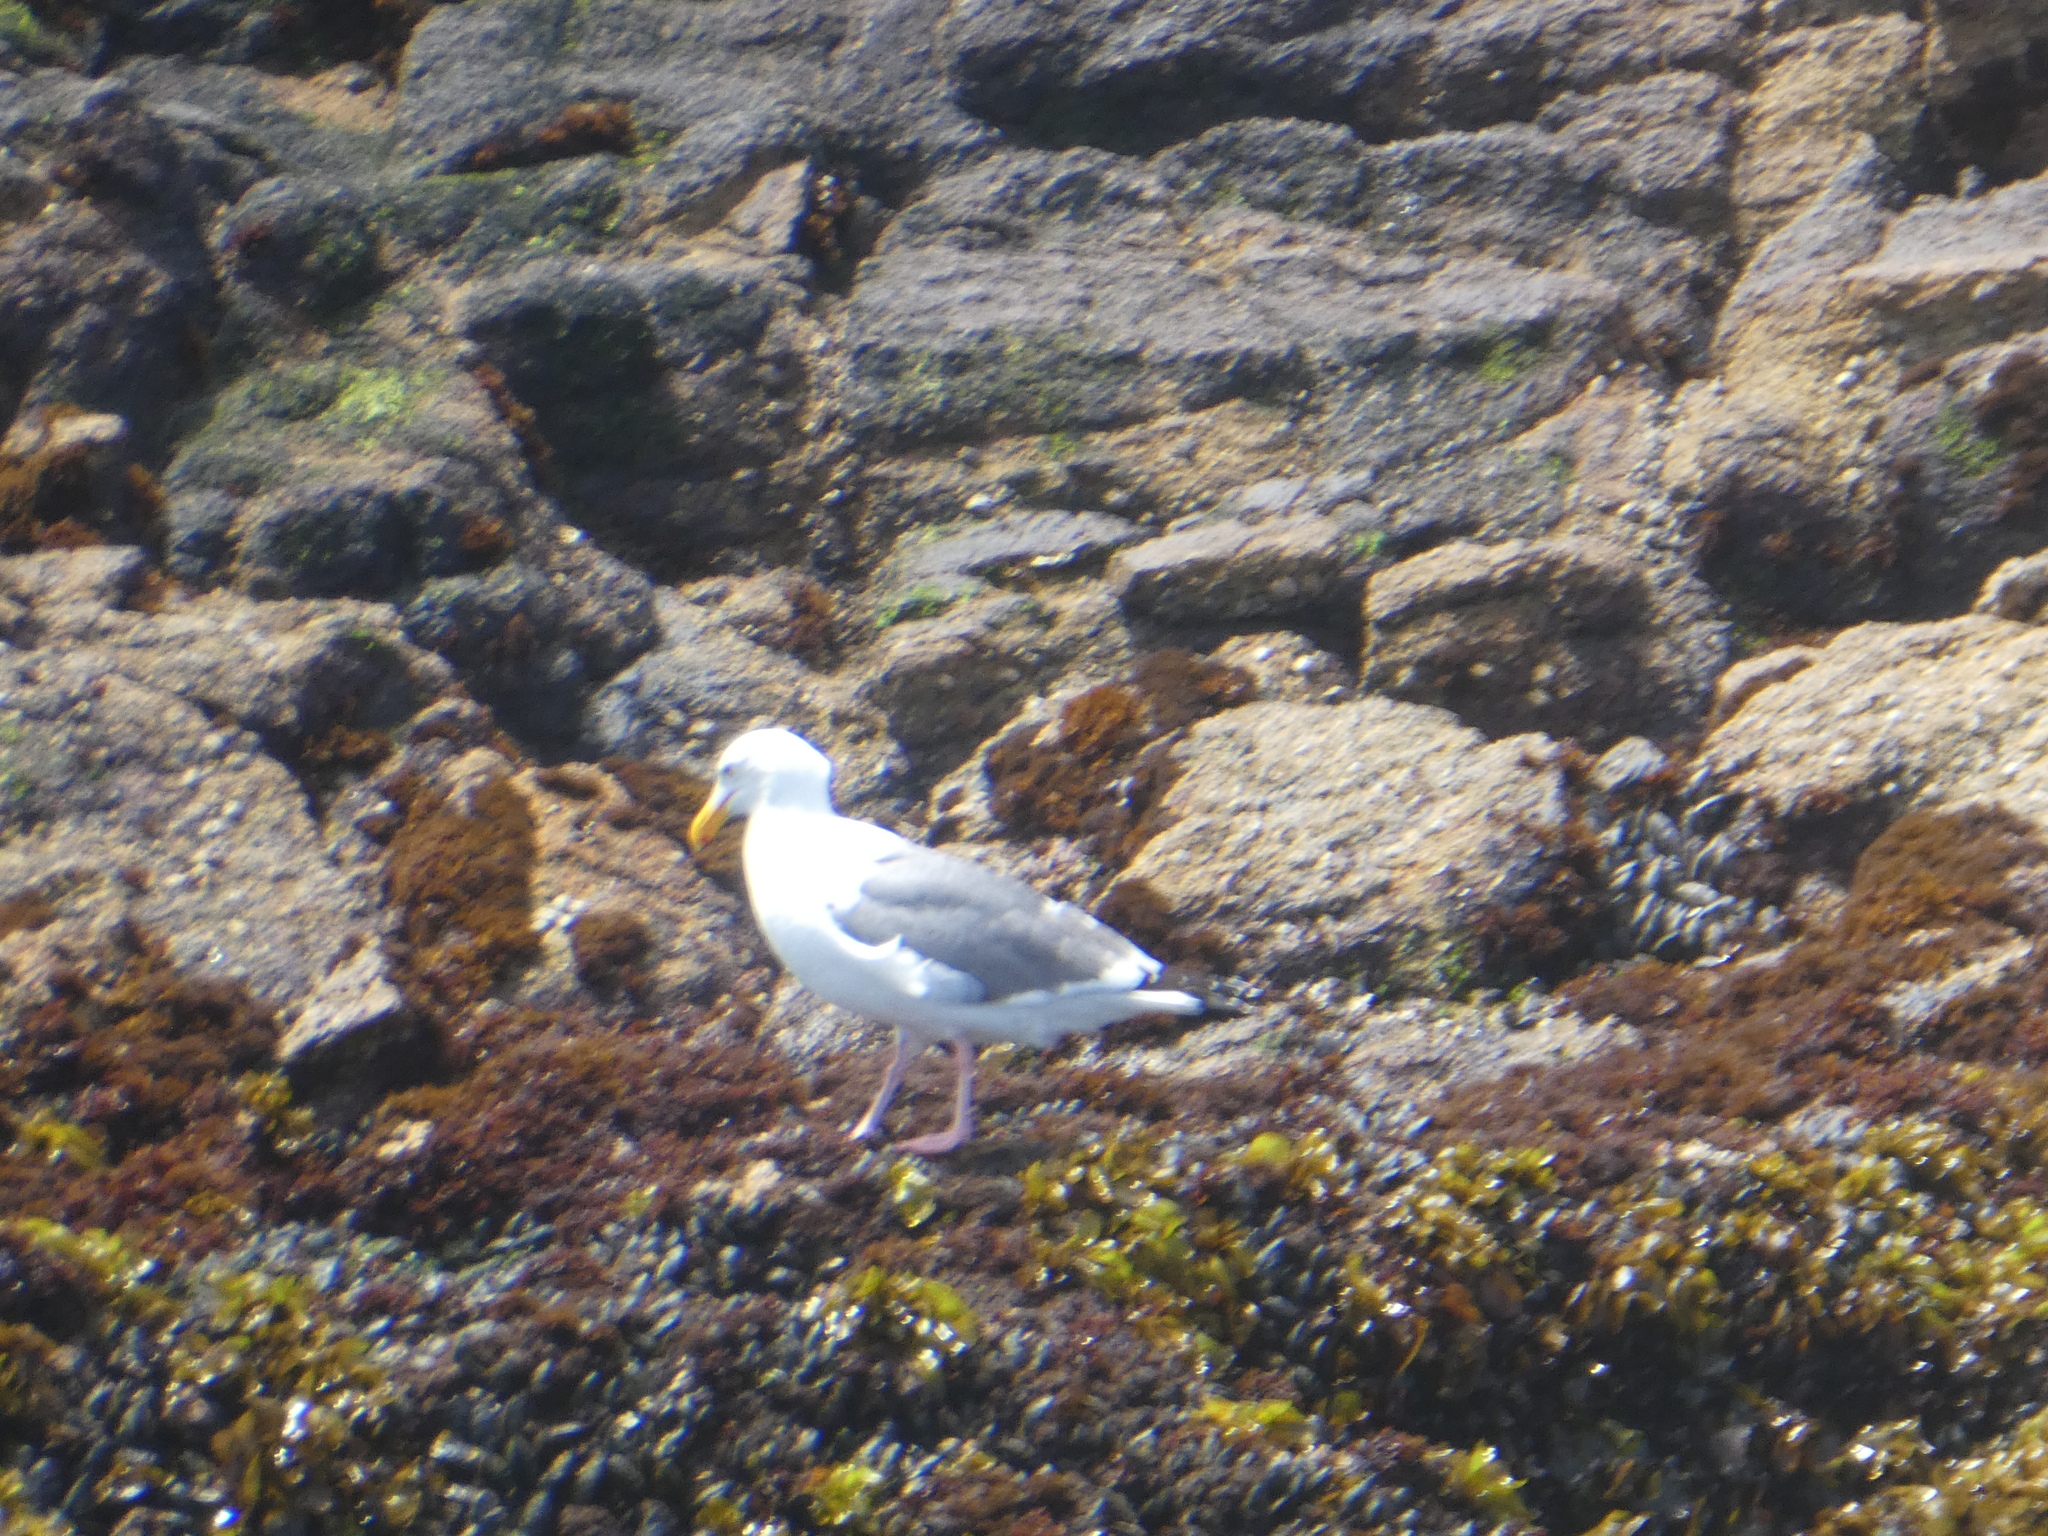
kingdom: Animalia
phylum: Chordata
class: Aves
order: Charadriiformes
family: Laridae
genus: Larus
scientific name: Larus occidentalis
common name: Western gull
